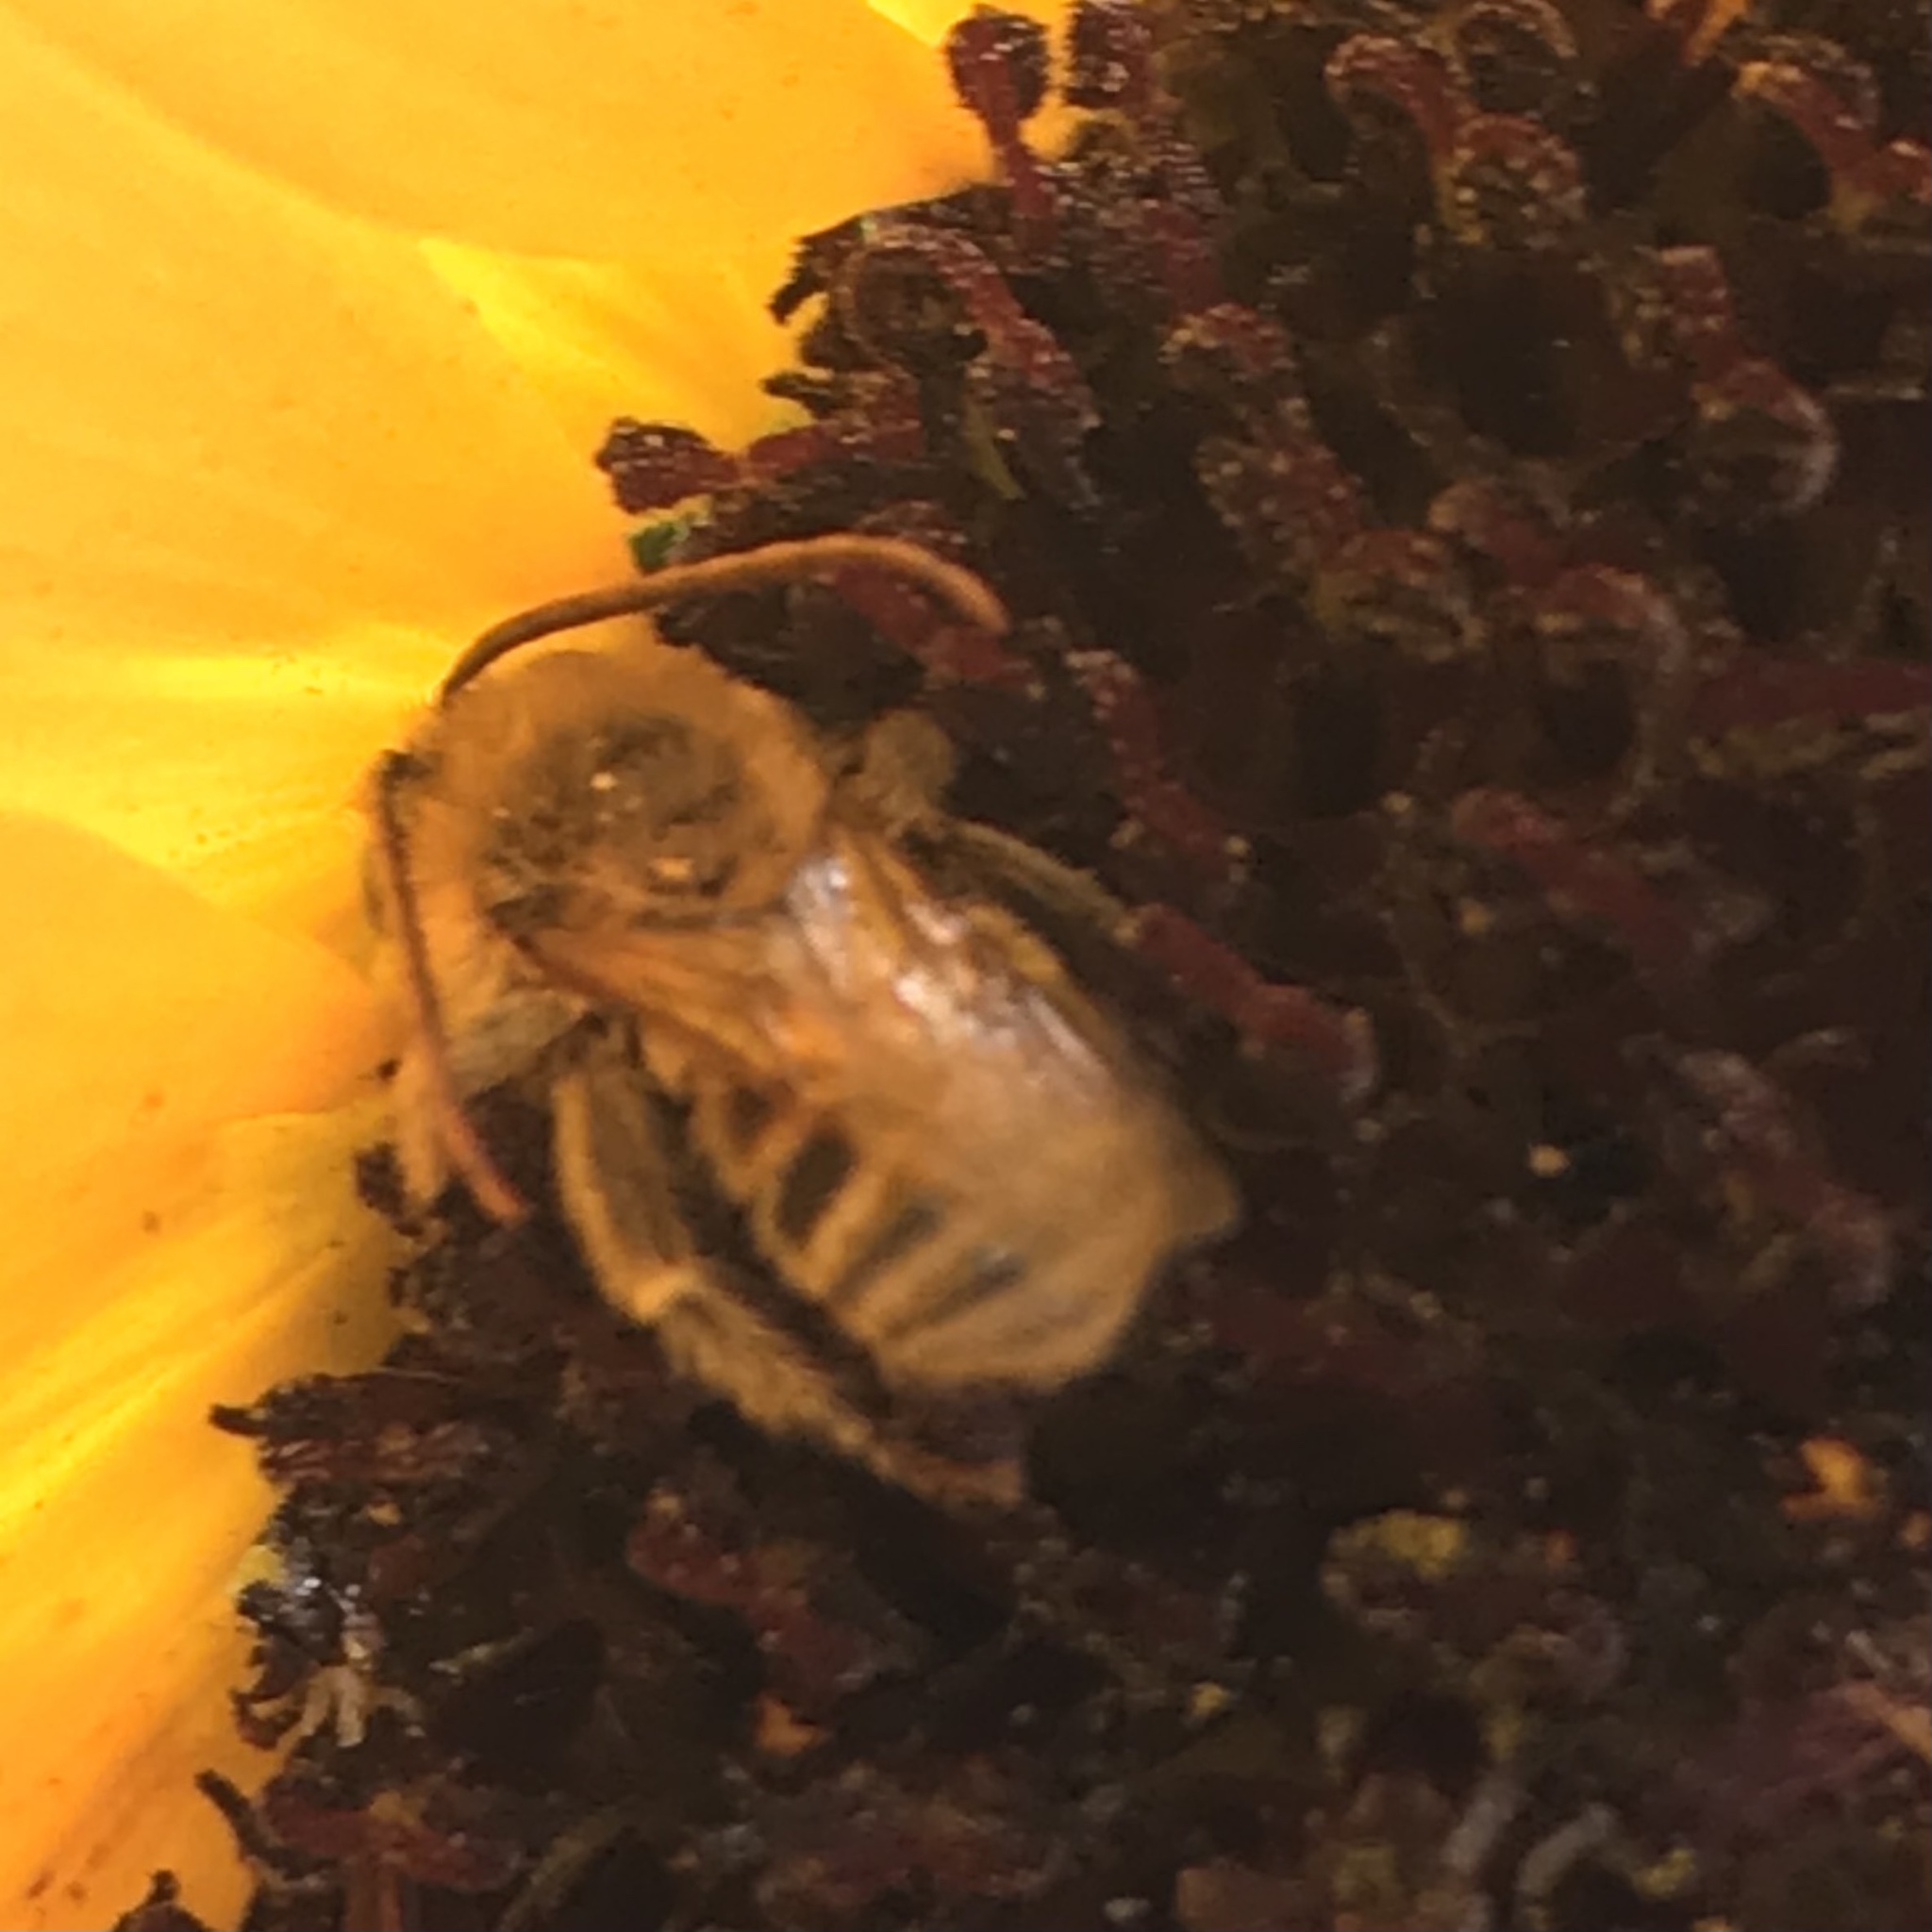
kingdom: Animalia
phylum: Arthropoda
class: Insecta
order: Hymenoptera
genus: Eumelissodes
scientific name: Eumelissodes
